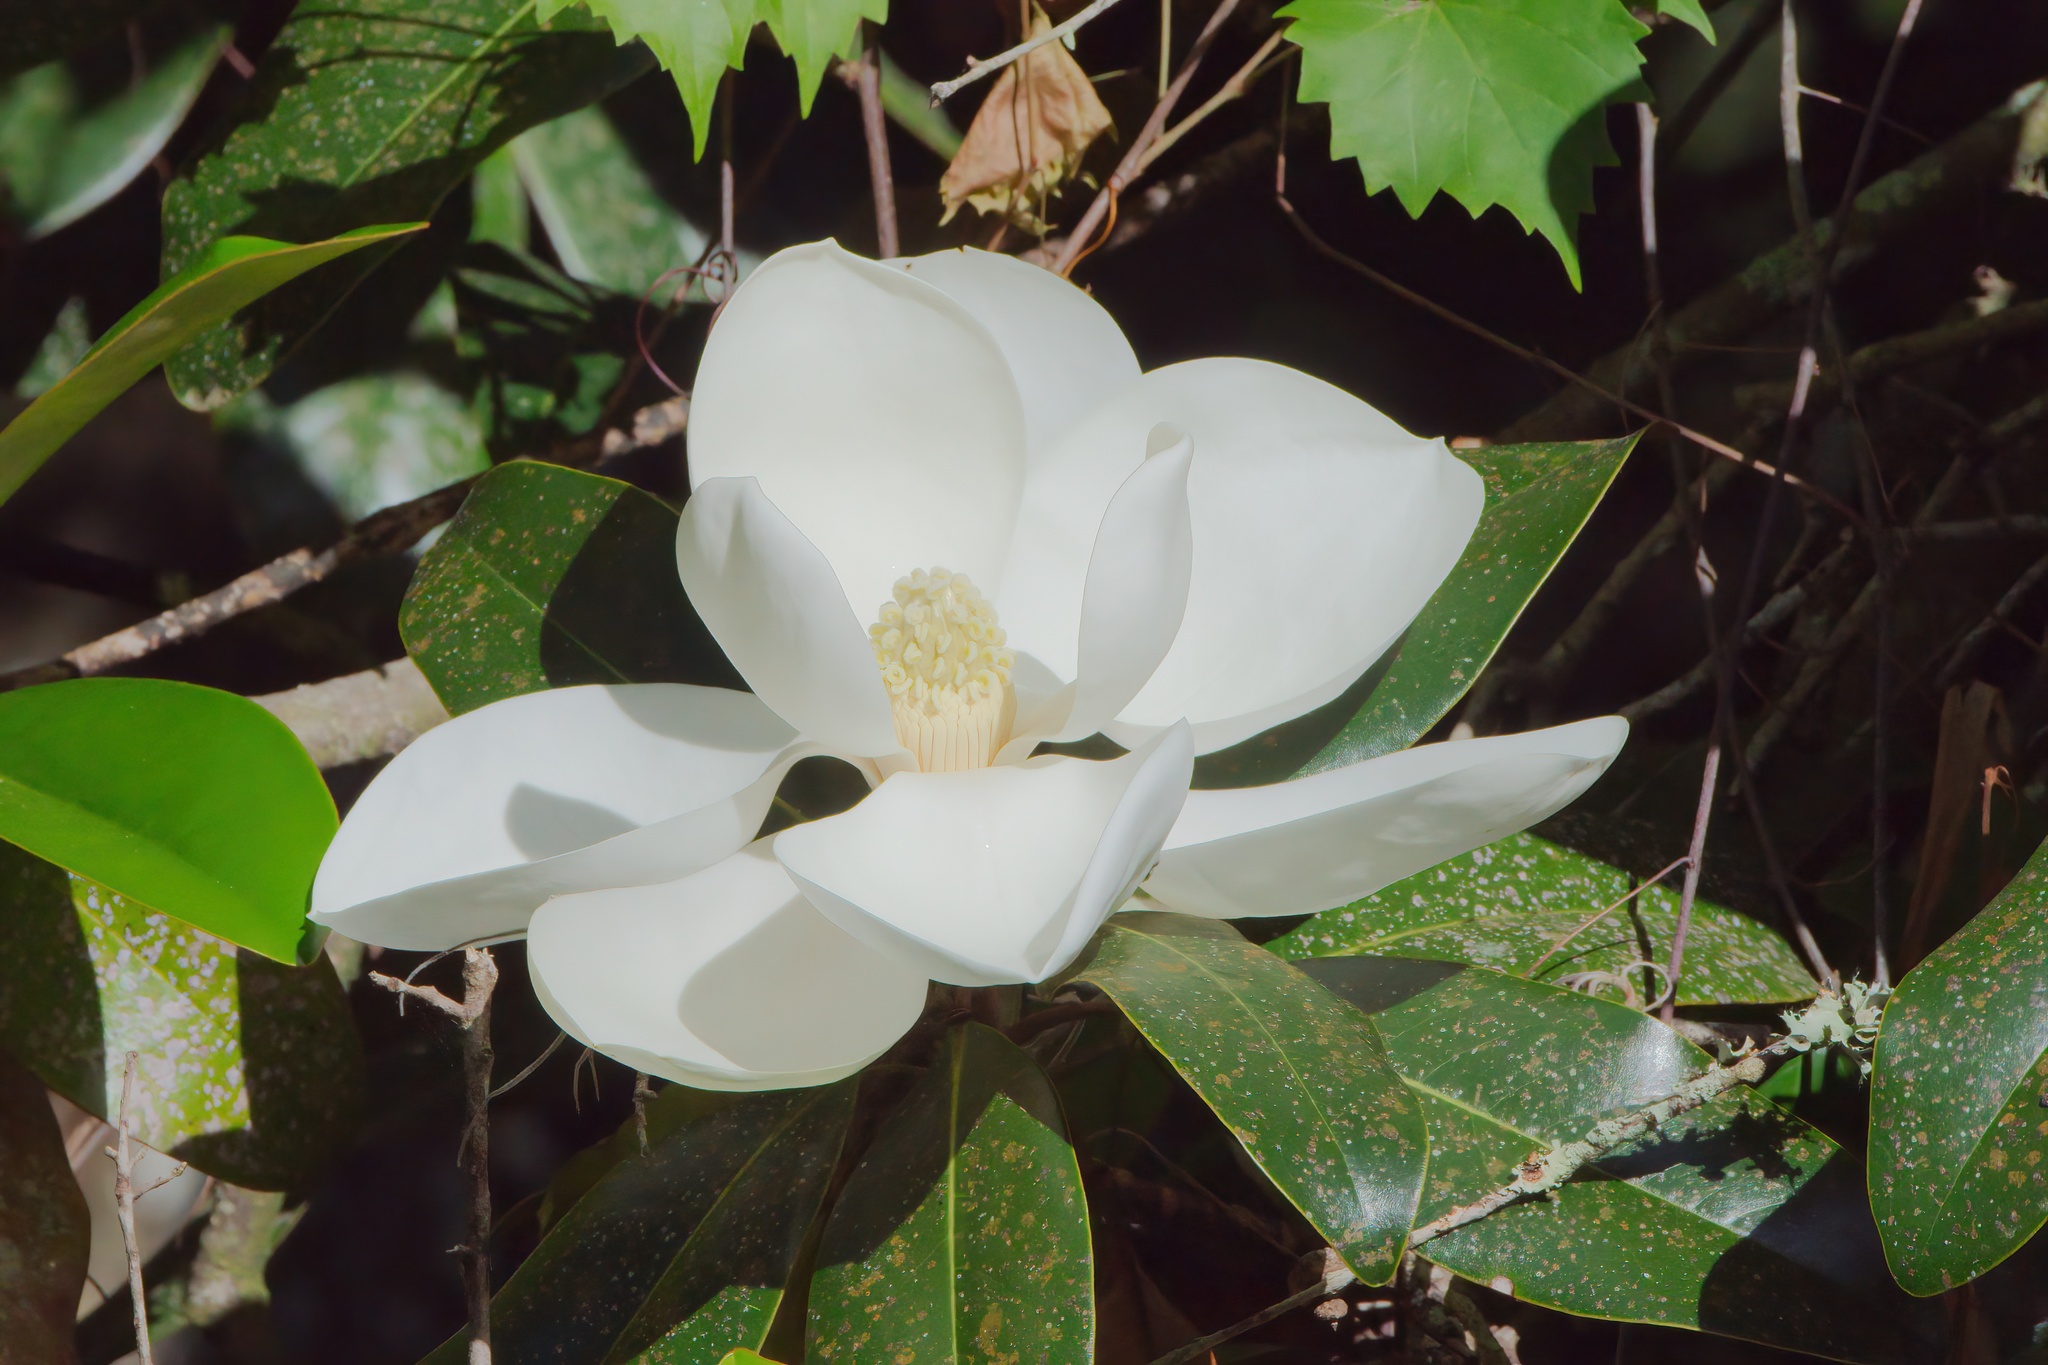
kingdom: Plantae
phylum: Tracheophyta
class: Magnoliopsida
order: Magnoliales
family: Magnoliaceae
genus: Magnolia
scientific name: Magnolia grandiflora
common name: Southern magnolia
